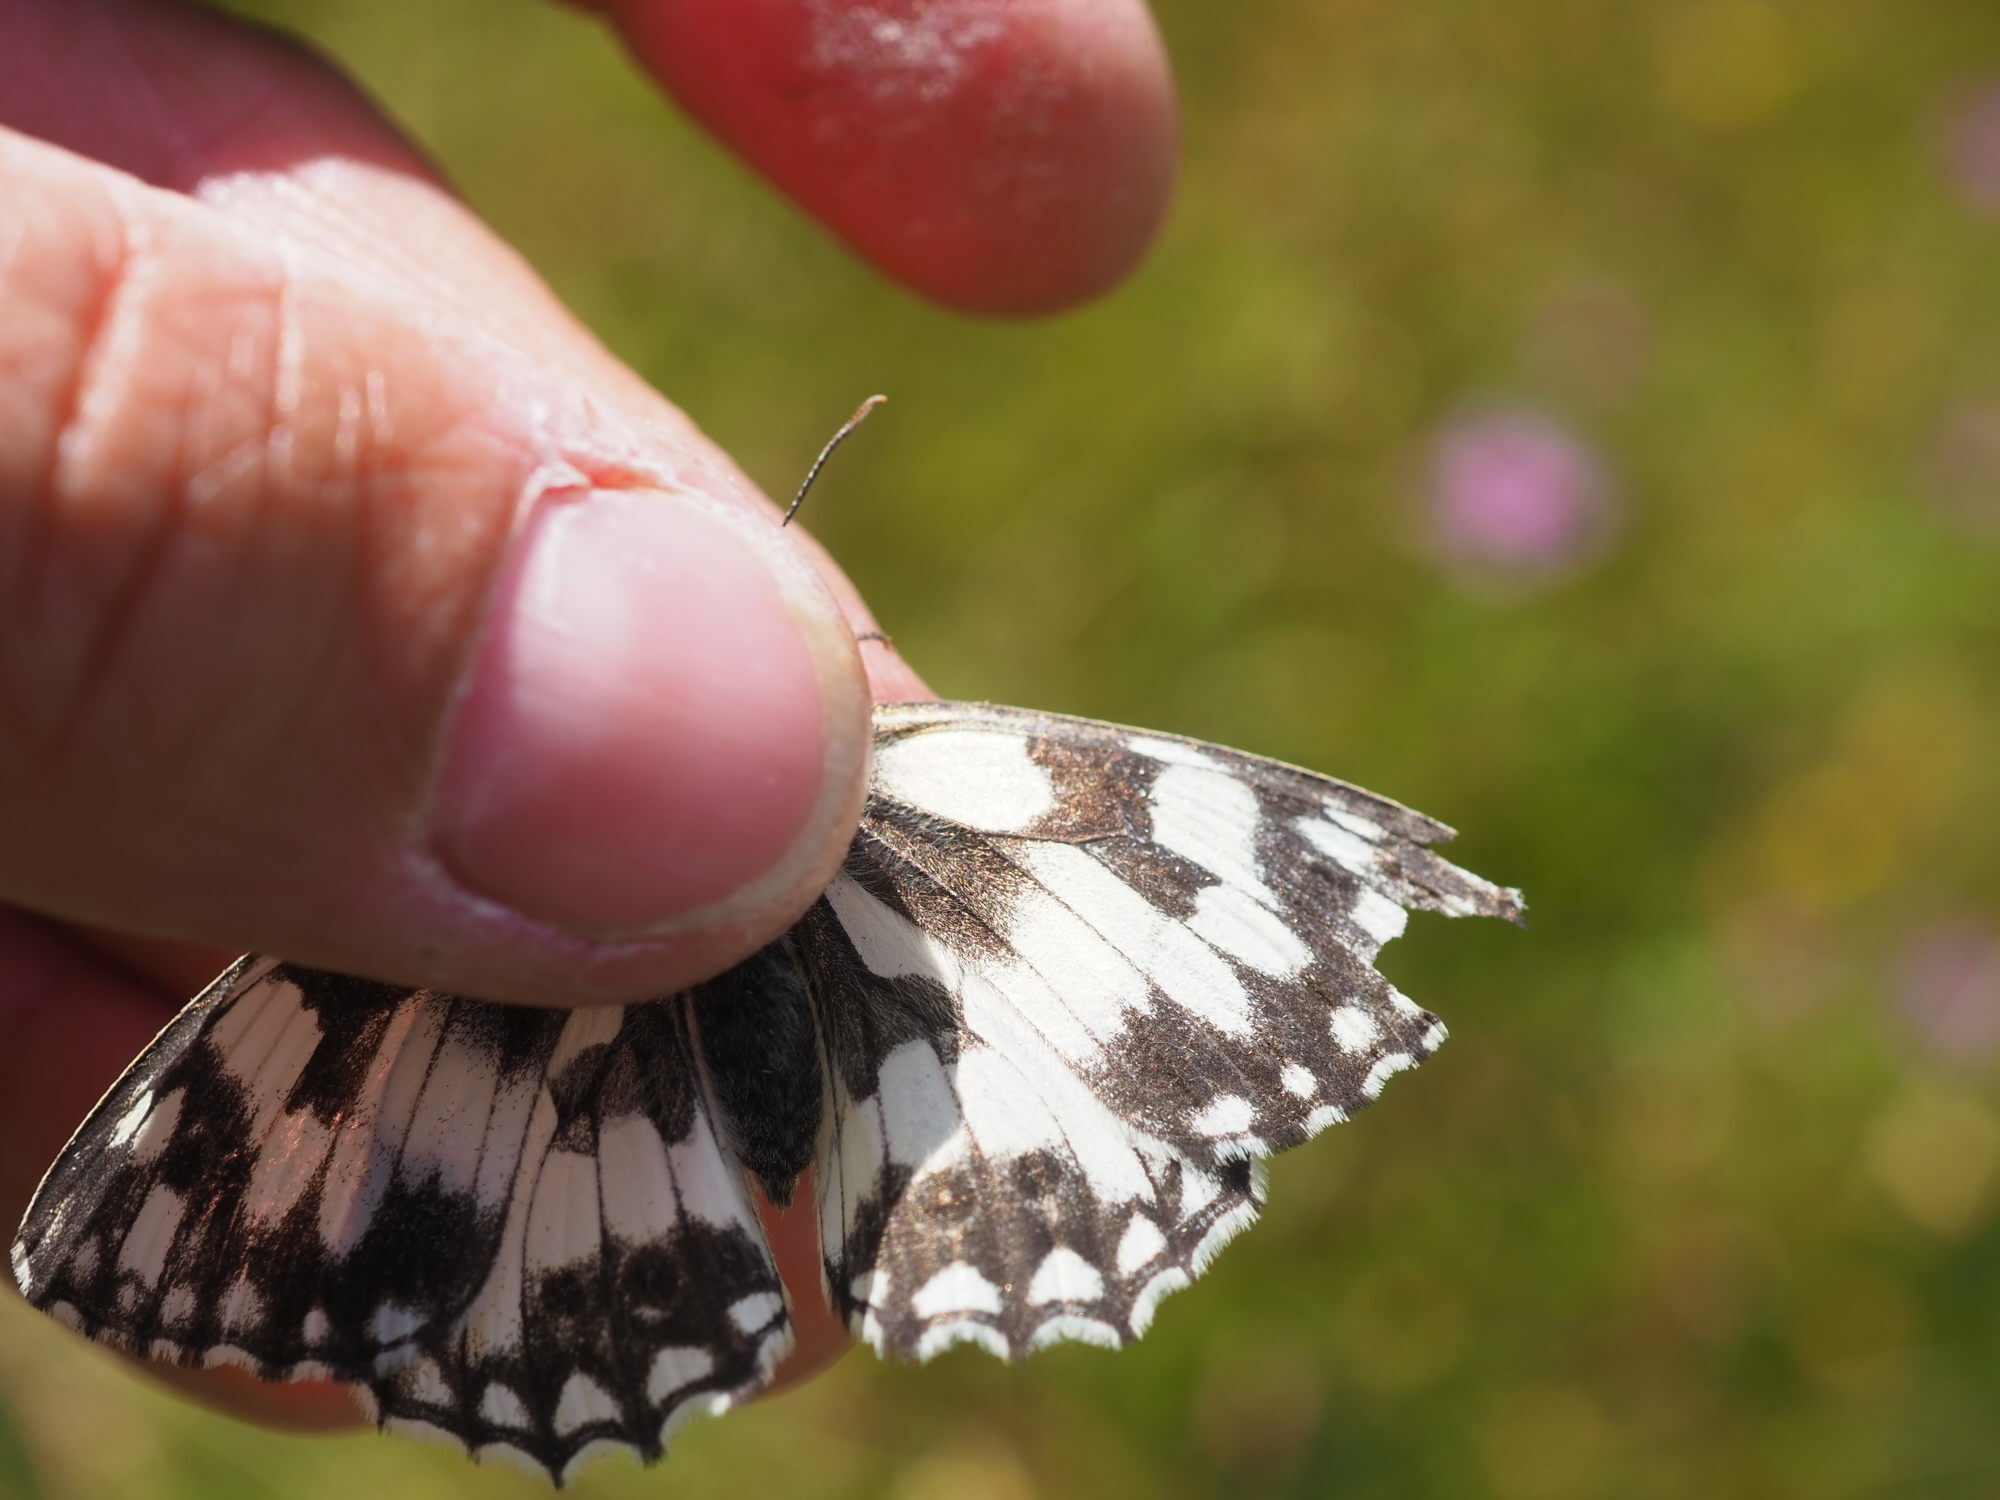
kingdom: Animalia
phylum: Arthropoda
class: Insecta
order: Lepidoptera
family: Nymphalidae
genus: Melanargia
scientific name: Melanargia galathea
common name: Marbled white
